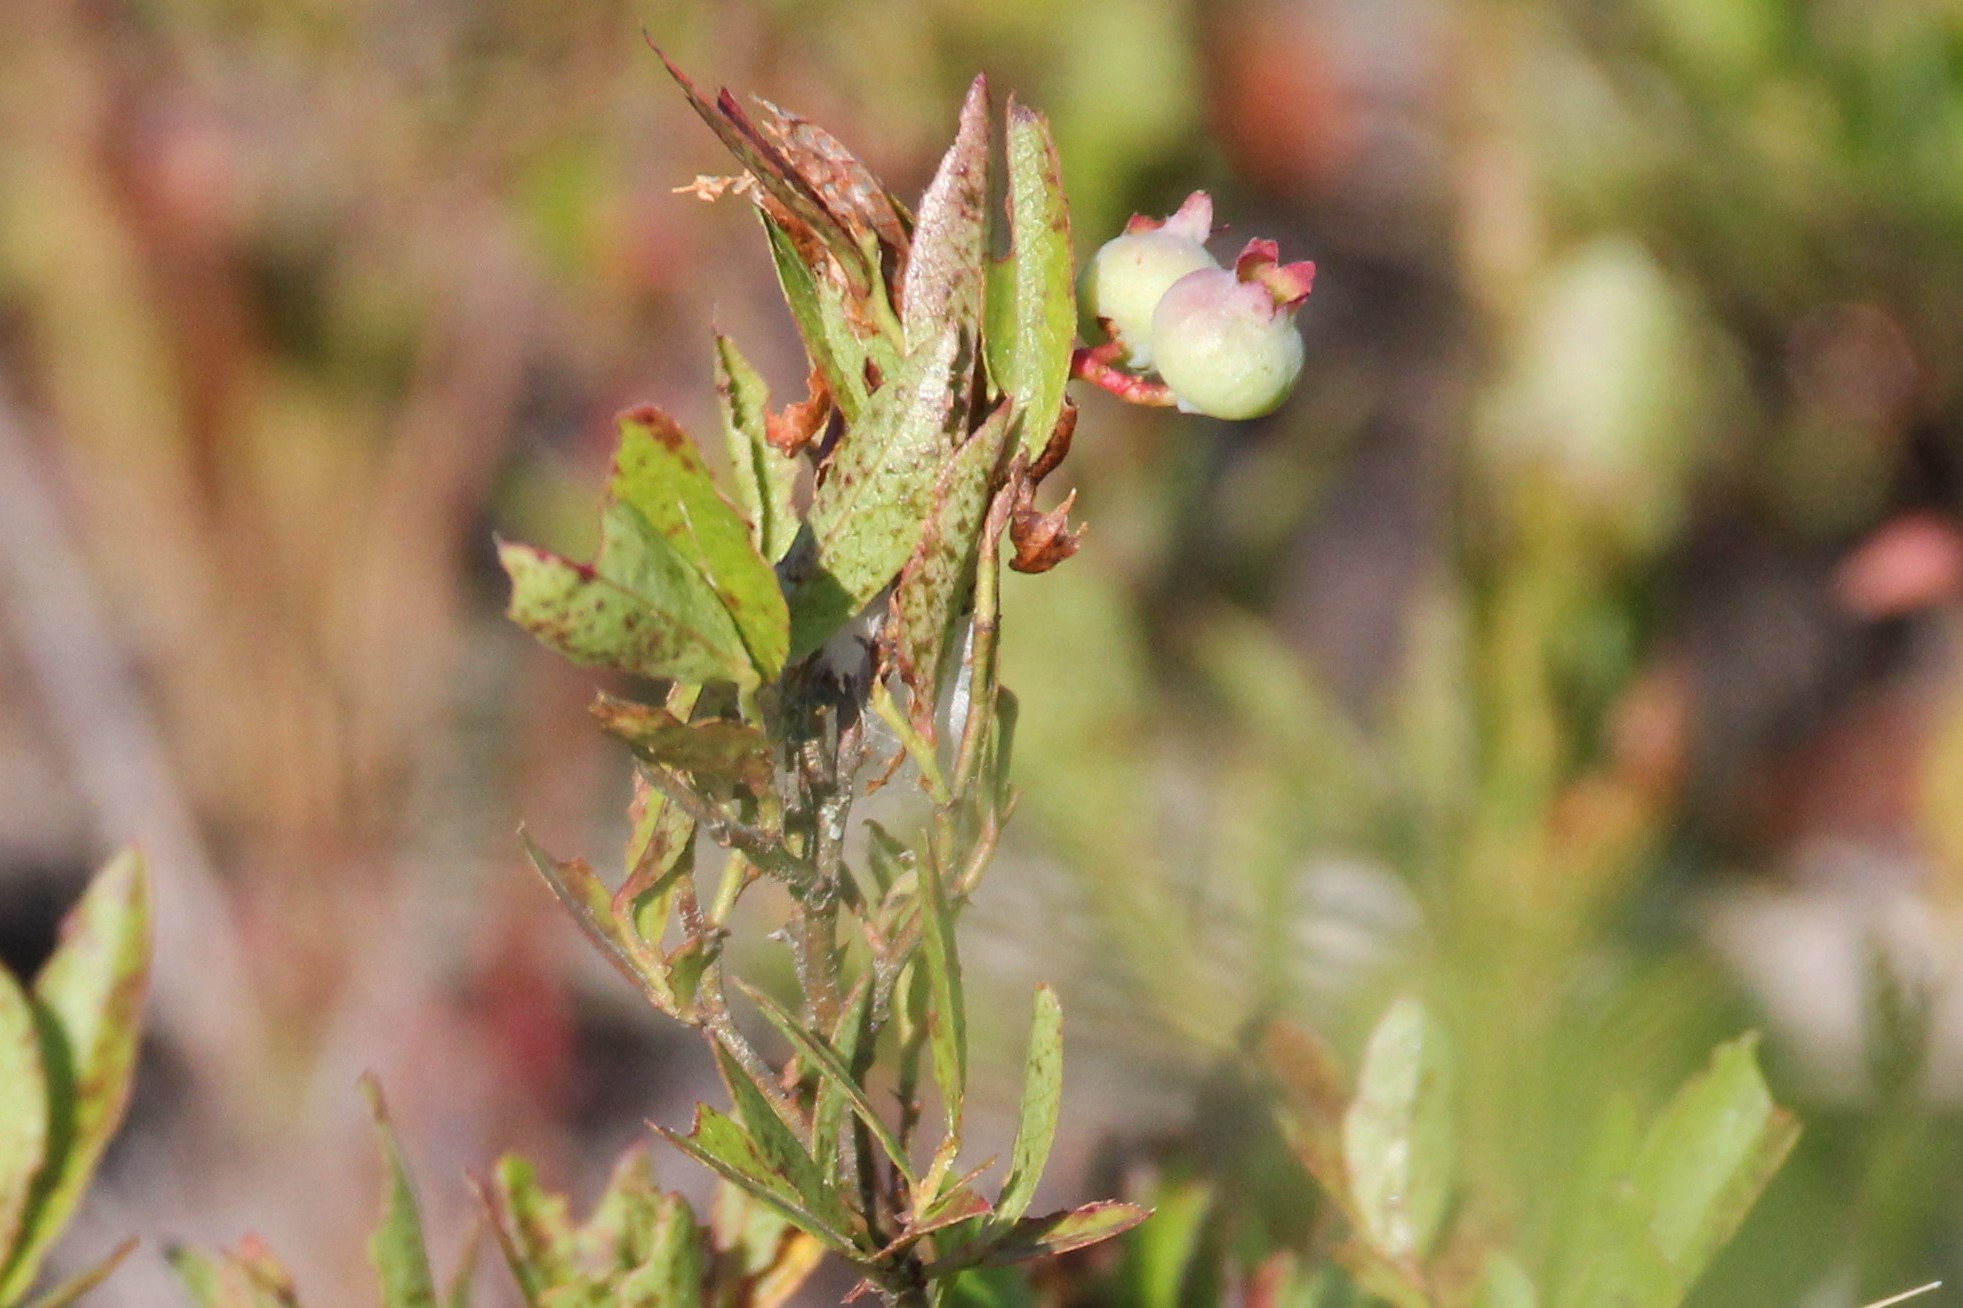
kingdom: Plantae
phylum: Tracheophyta
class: Magnoliopsida
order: Ericales
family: Ericaceae
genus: Vaccinium
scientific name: Vaccinium angustifolium
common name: Early lowbush blueberry
